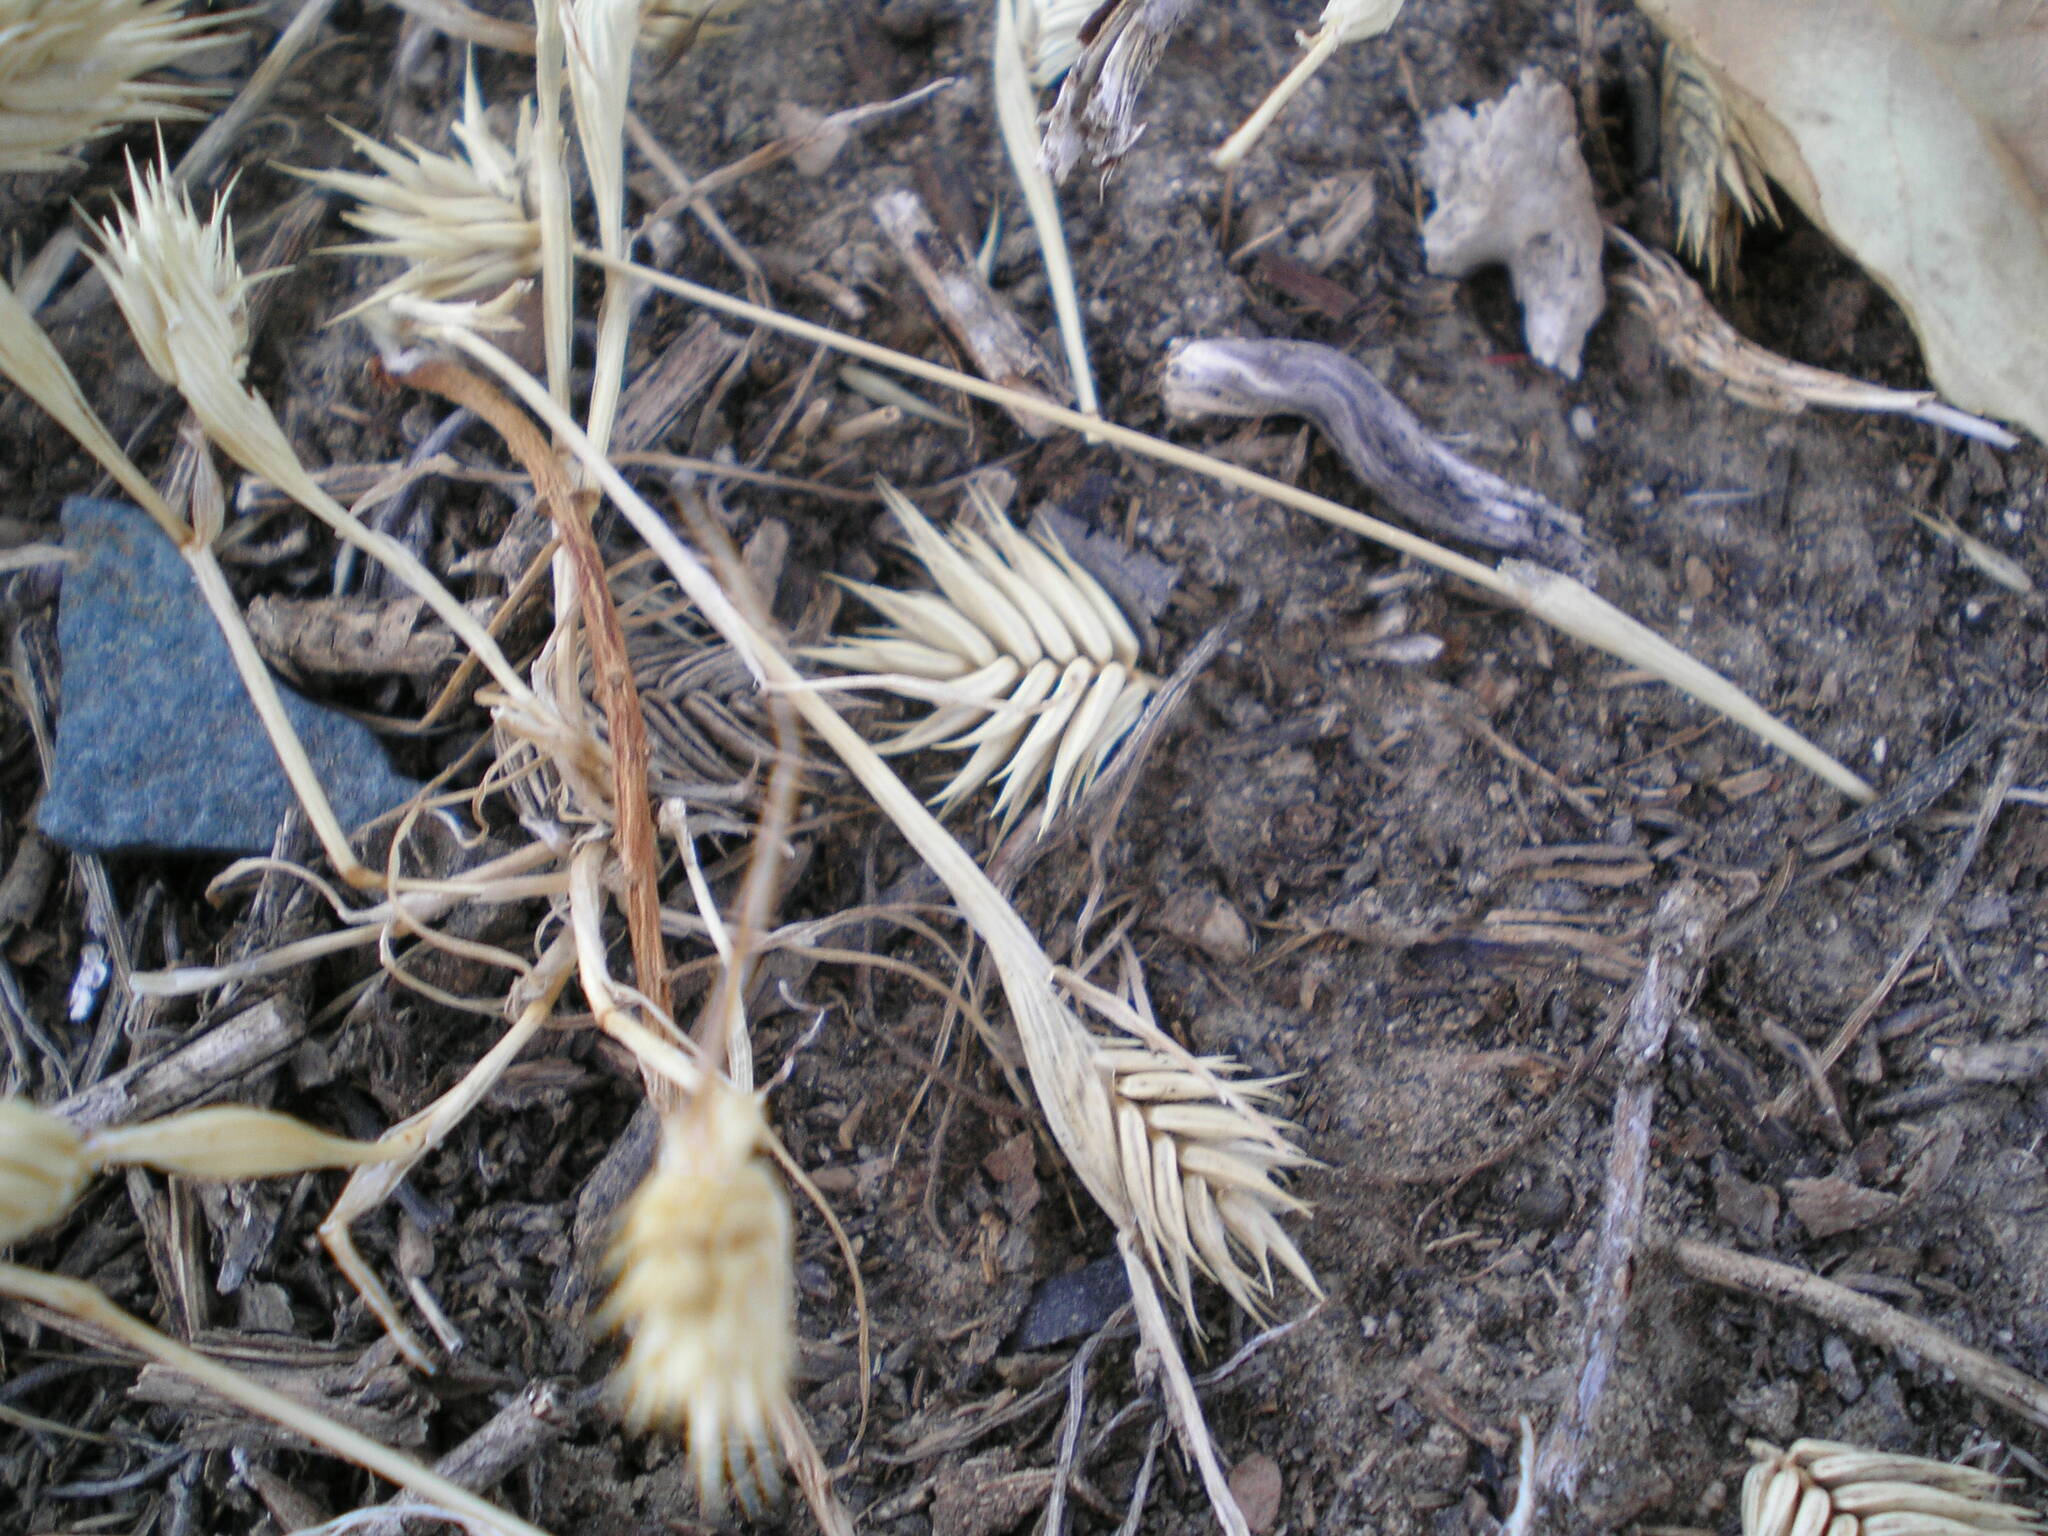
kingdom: Plantae
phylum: Tracheophyta
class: Liliopsida
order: Poales
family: Poaceae
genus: Eremopyrum
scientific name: Eremopyrum triticeum
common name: Annual wheatgrass
